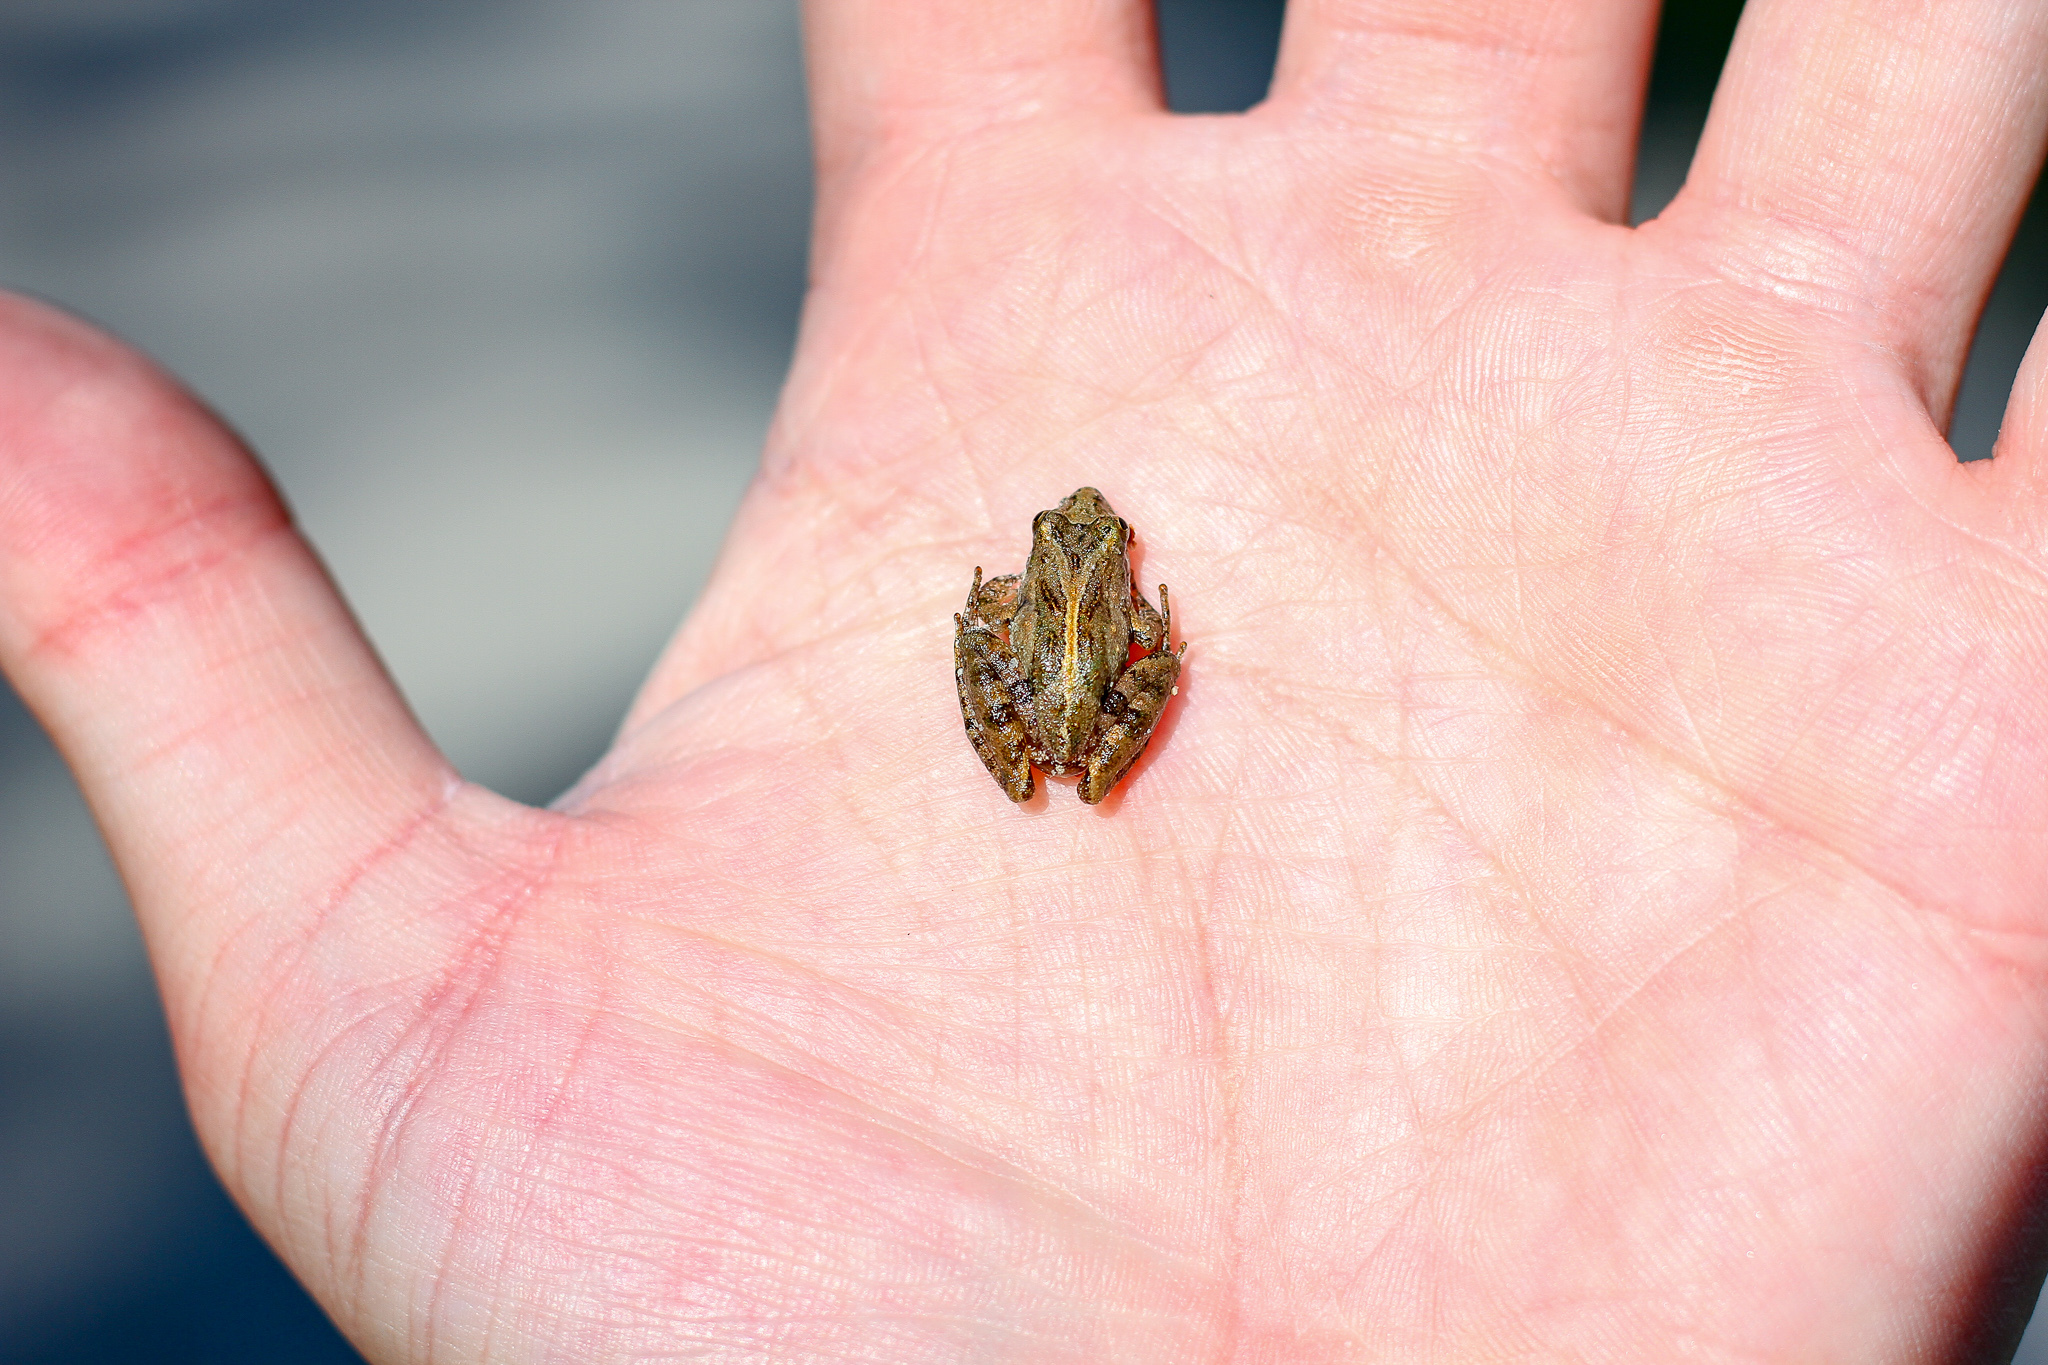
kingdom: Animalia
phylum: Chordata
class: Amphibia
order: Anura
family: Hylidae
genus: Acris
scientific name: Acris gryllus
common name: Southern cricket frog
